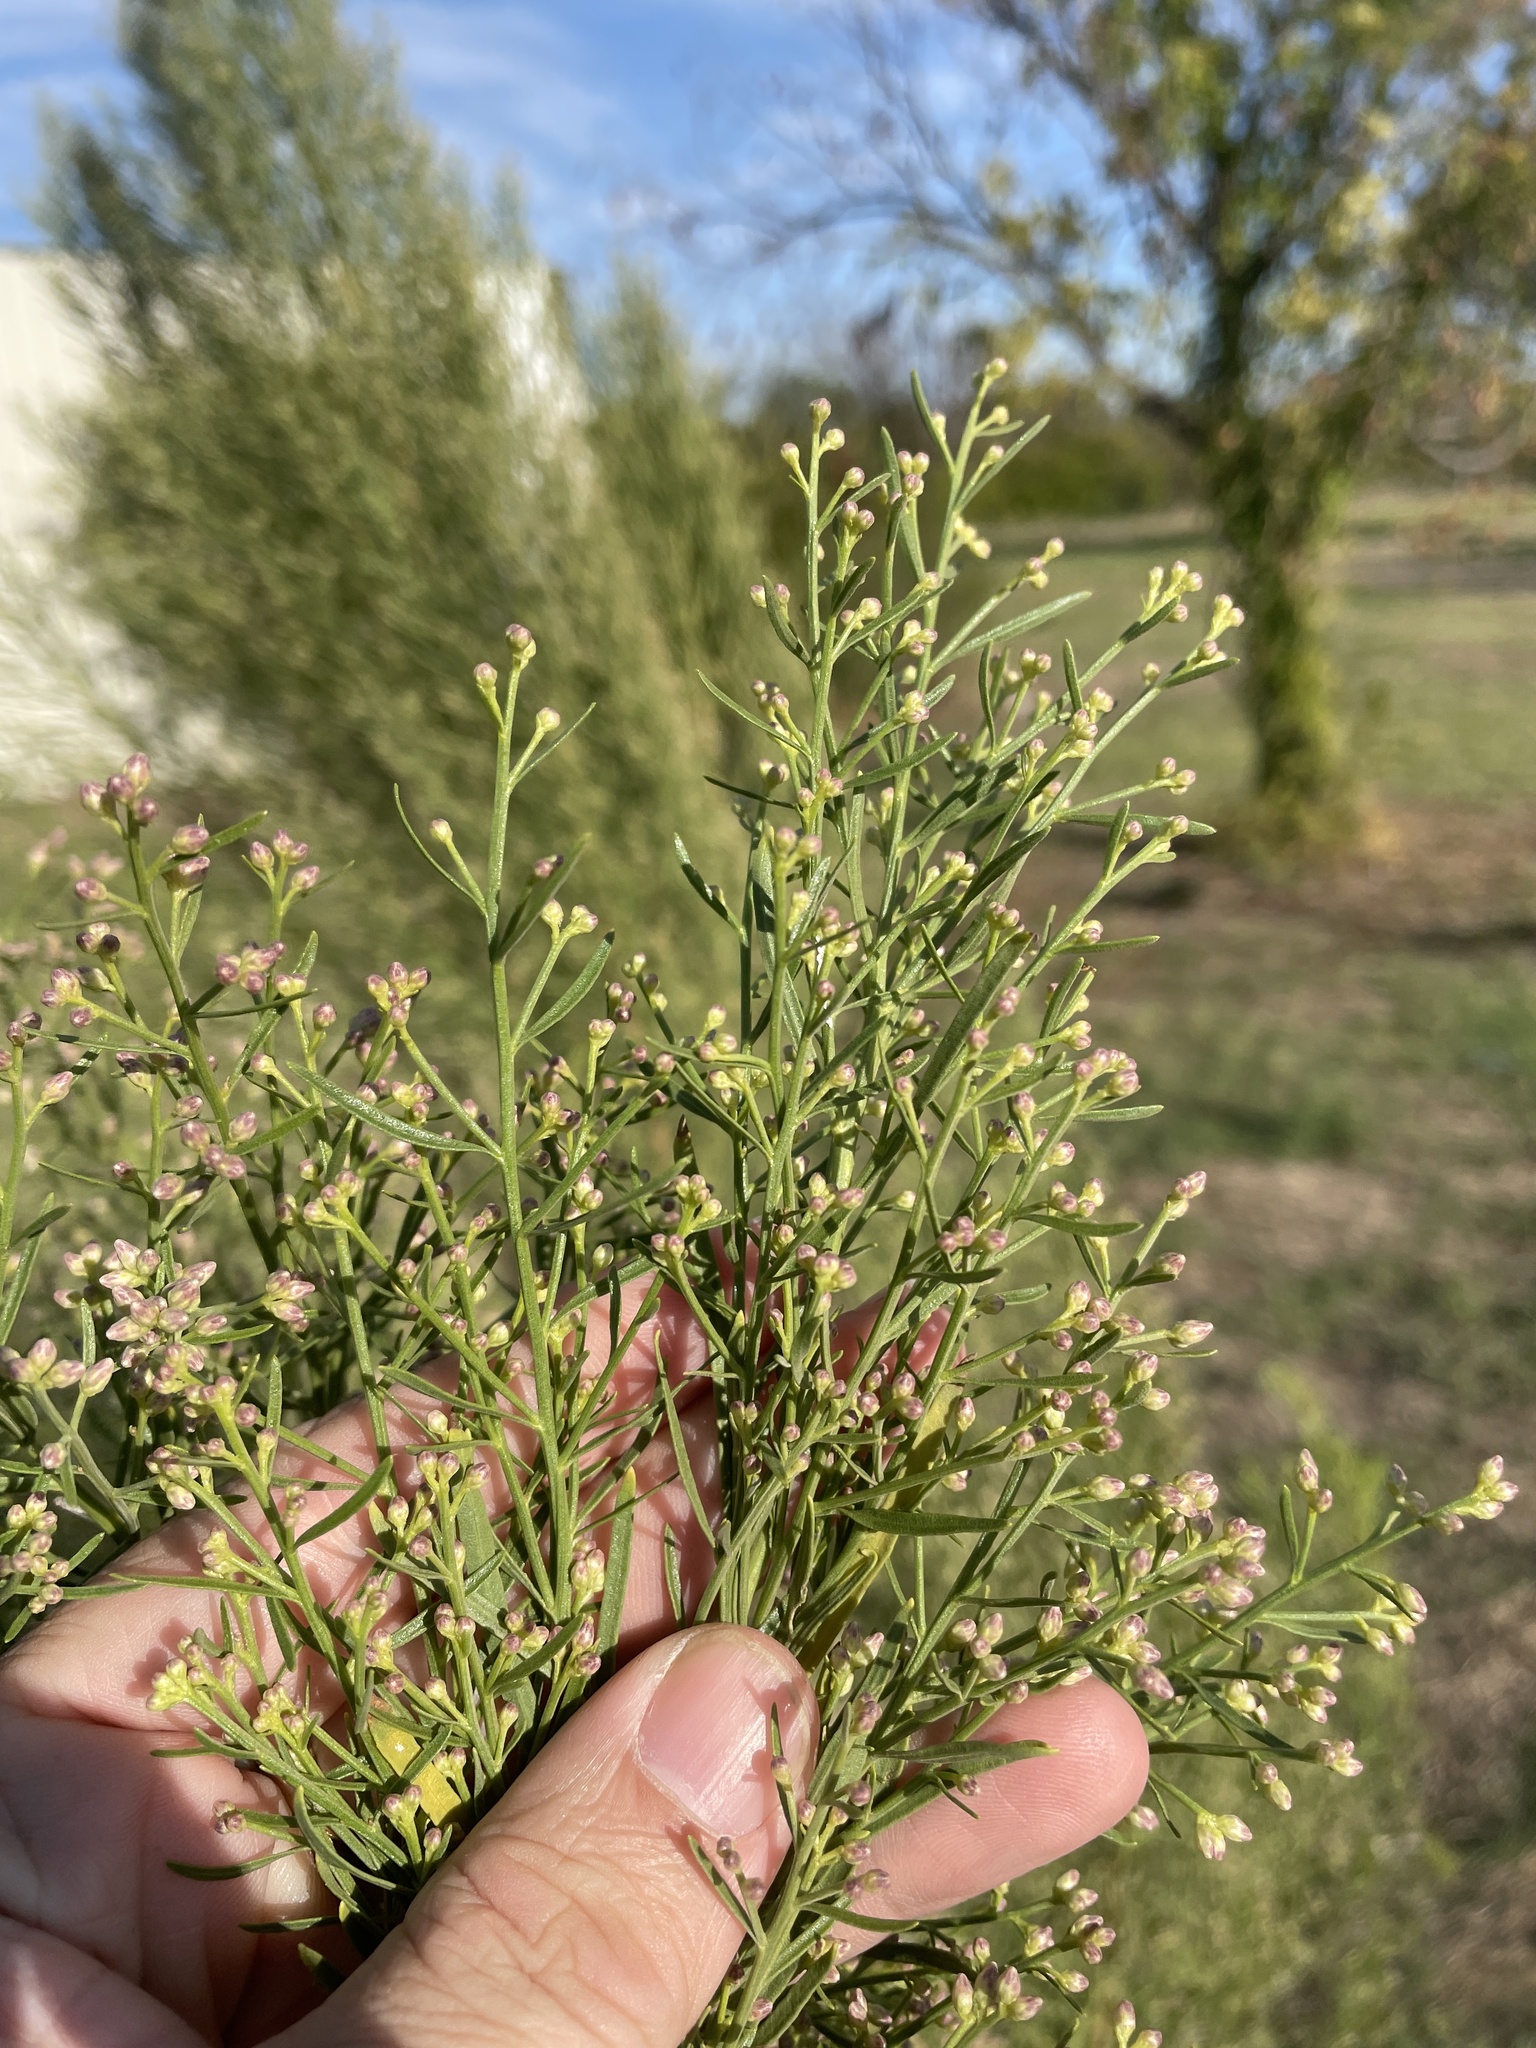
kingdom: Plantae
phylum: Tracheophyta
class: Magnoliopsida
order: Asterales
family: Asteraceae
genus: Baccharis
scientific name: Baccharis neglecta
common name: Roosevelt-weed
